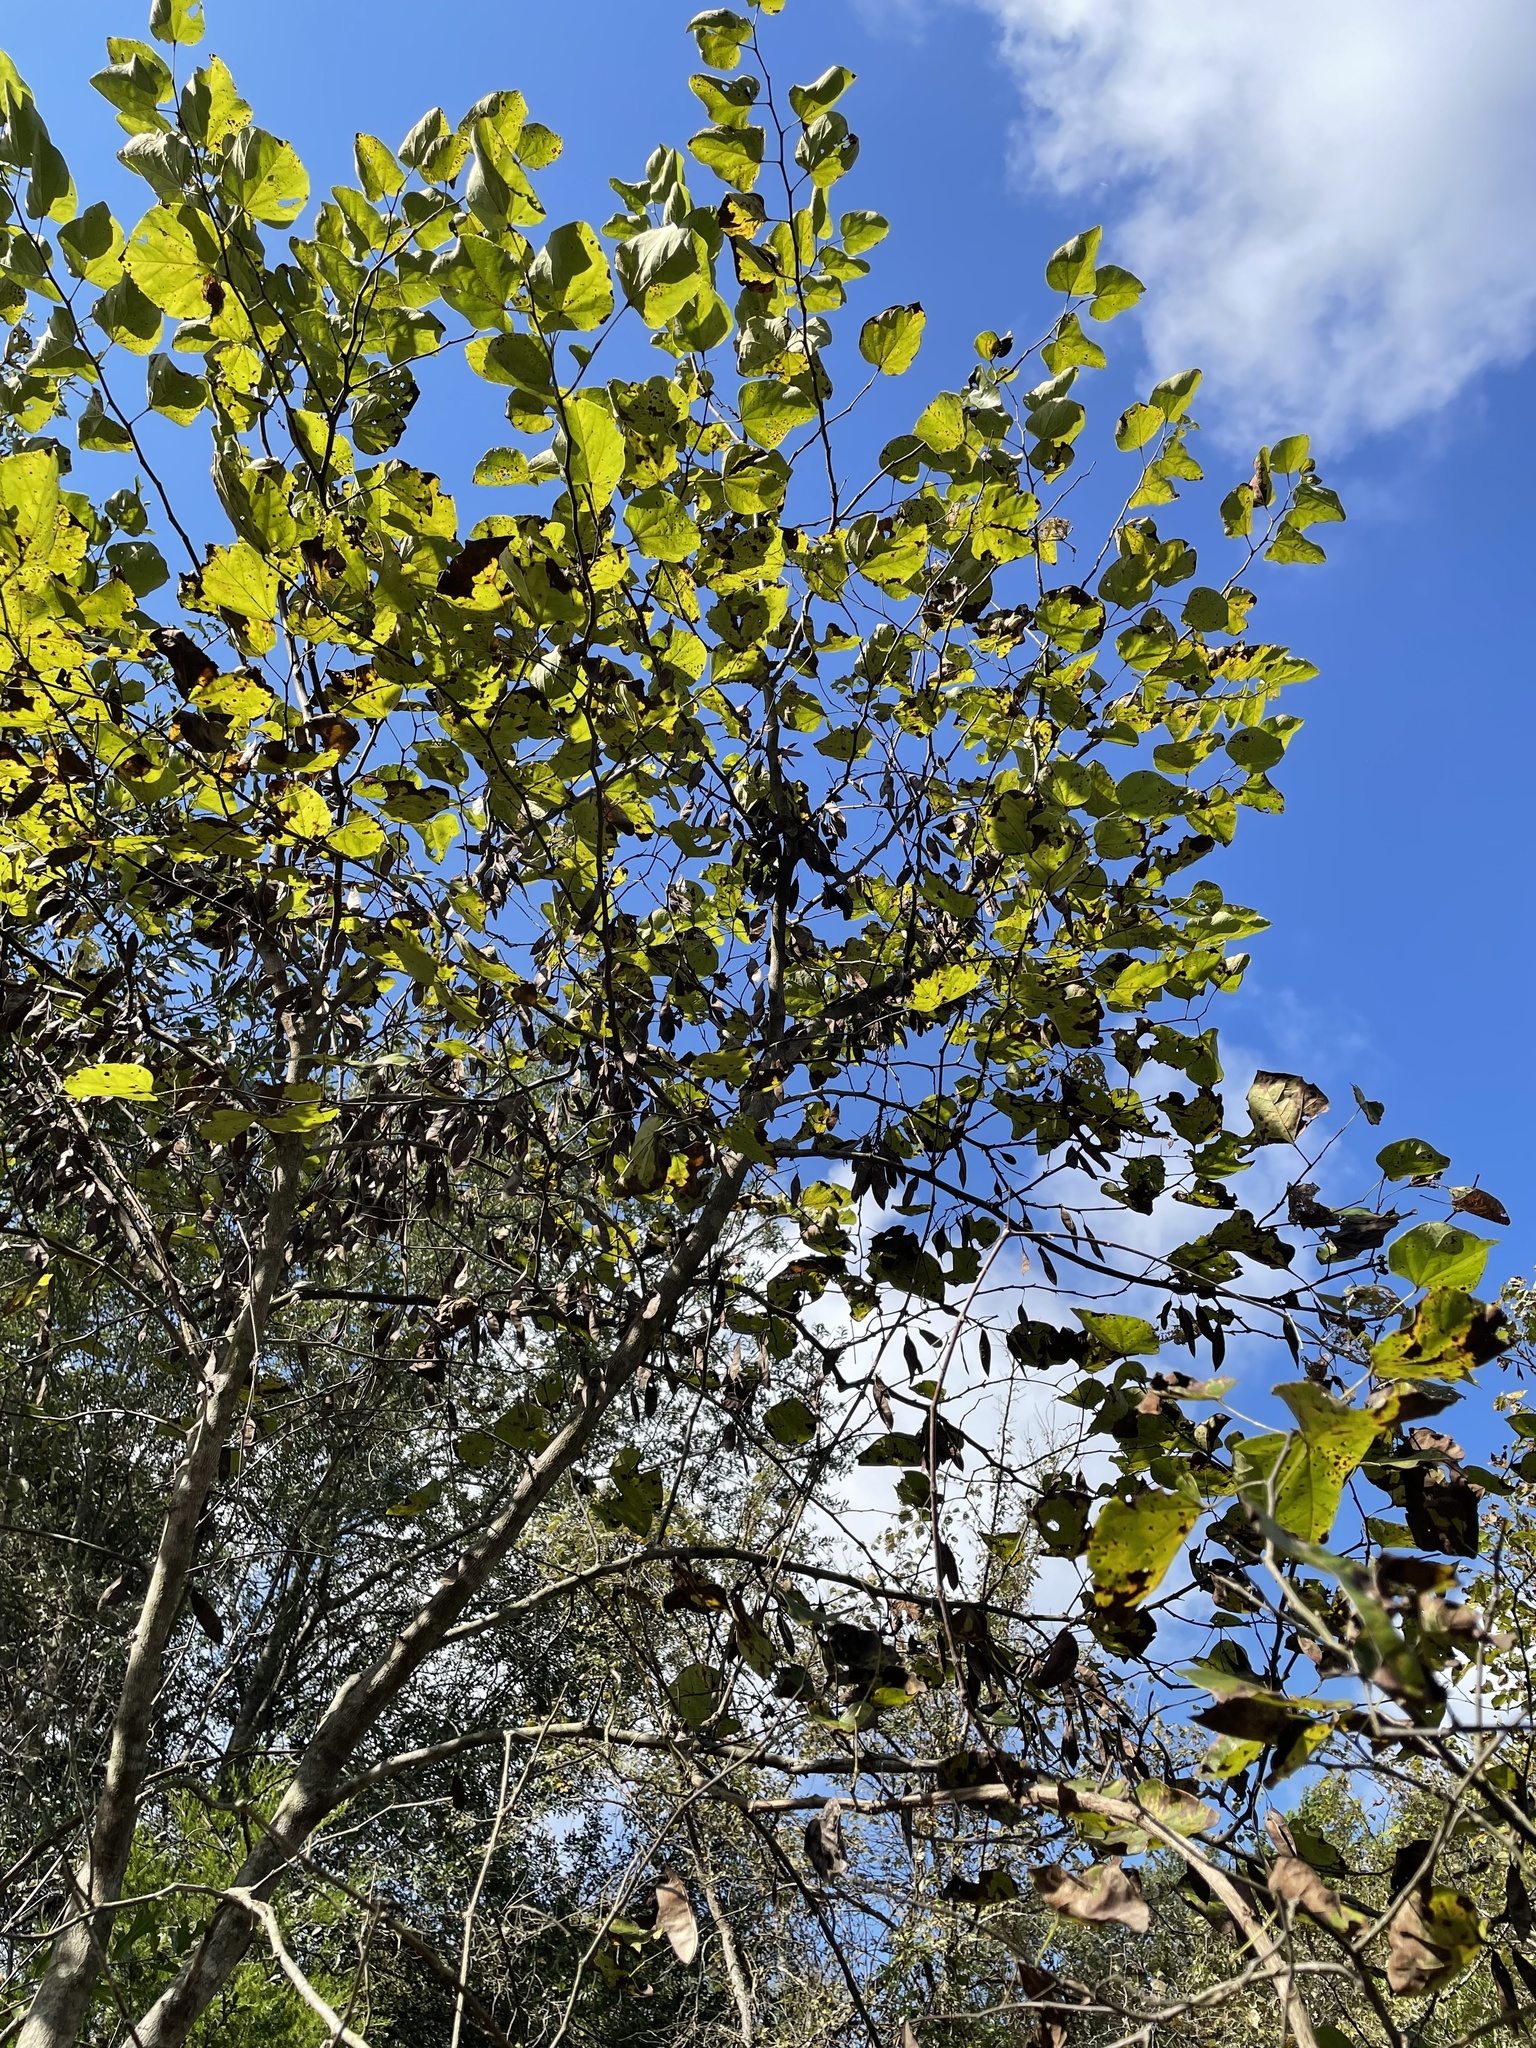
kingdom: Plantae
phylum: Tracheophyta
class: Magnoliopsida
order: Fabales
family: Fabaceae
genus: Cercis
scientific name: Cercis canadensis
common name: Eastern redbud
